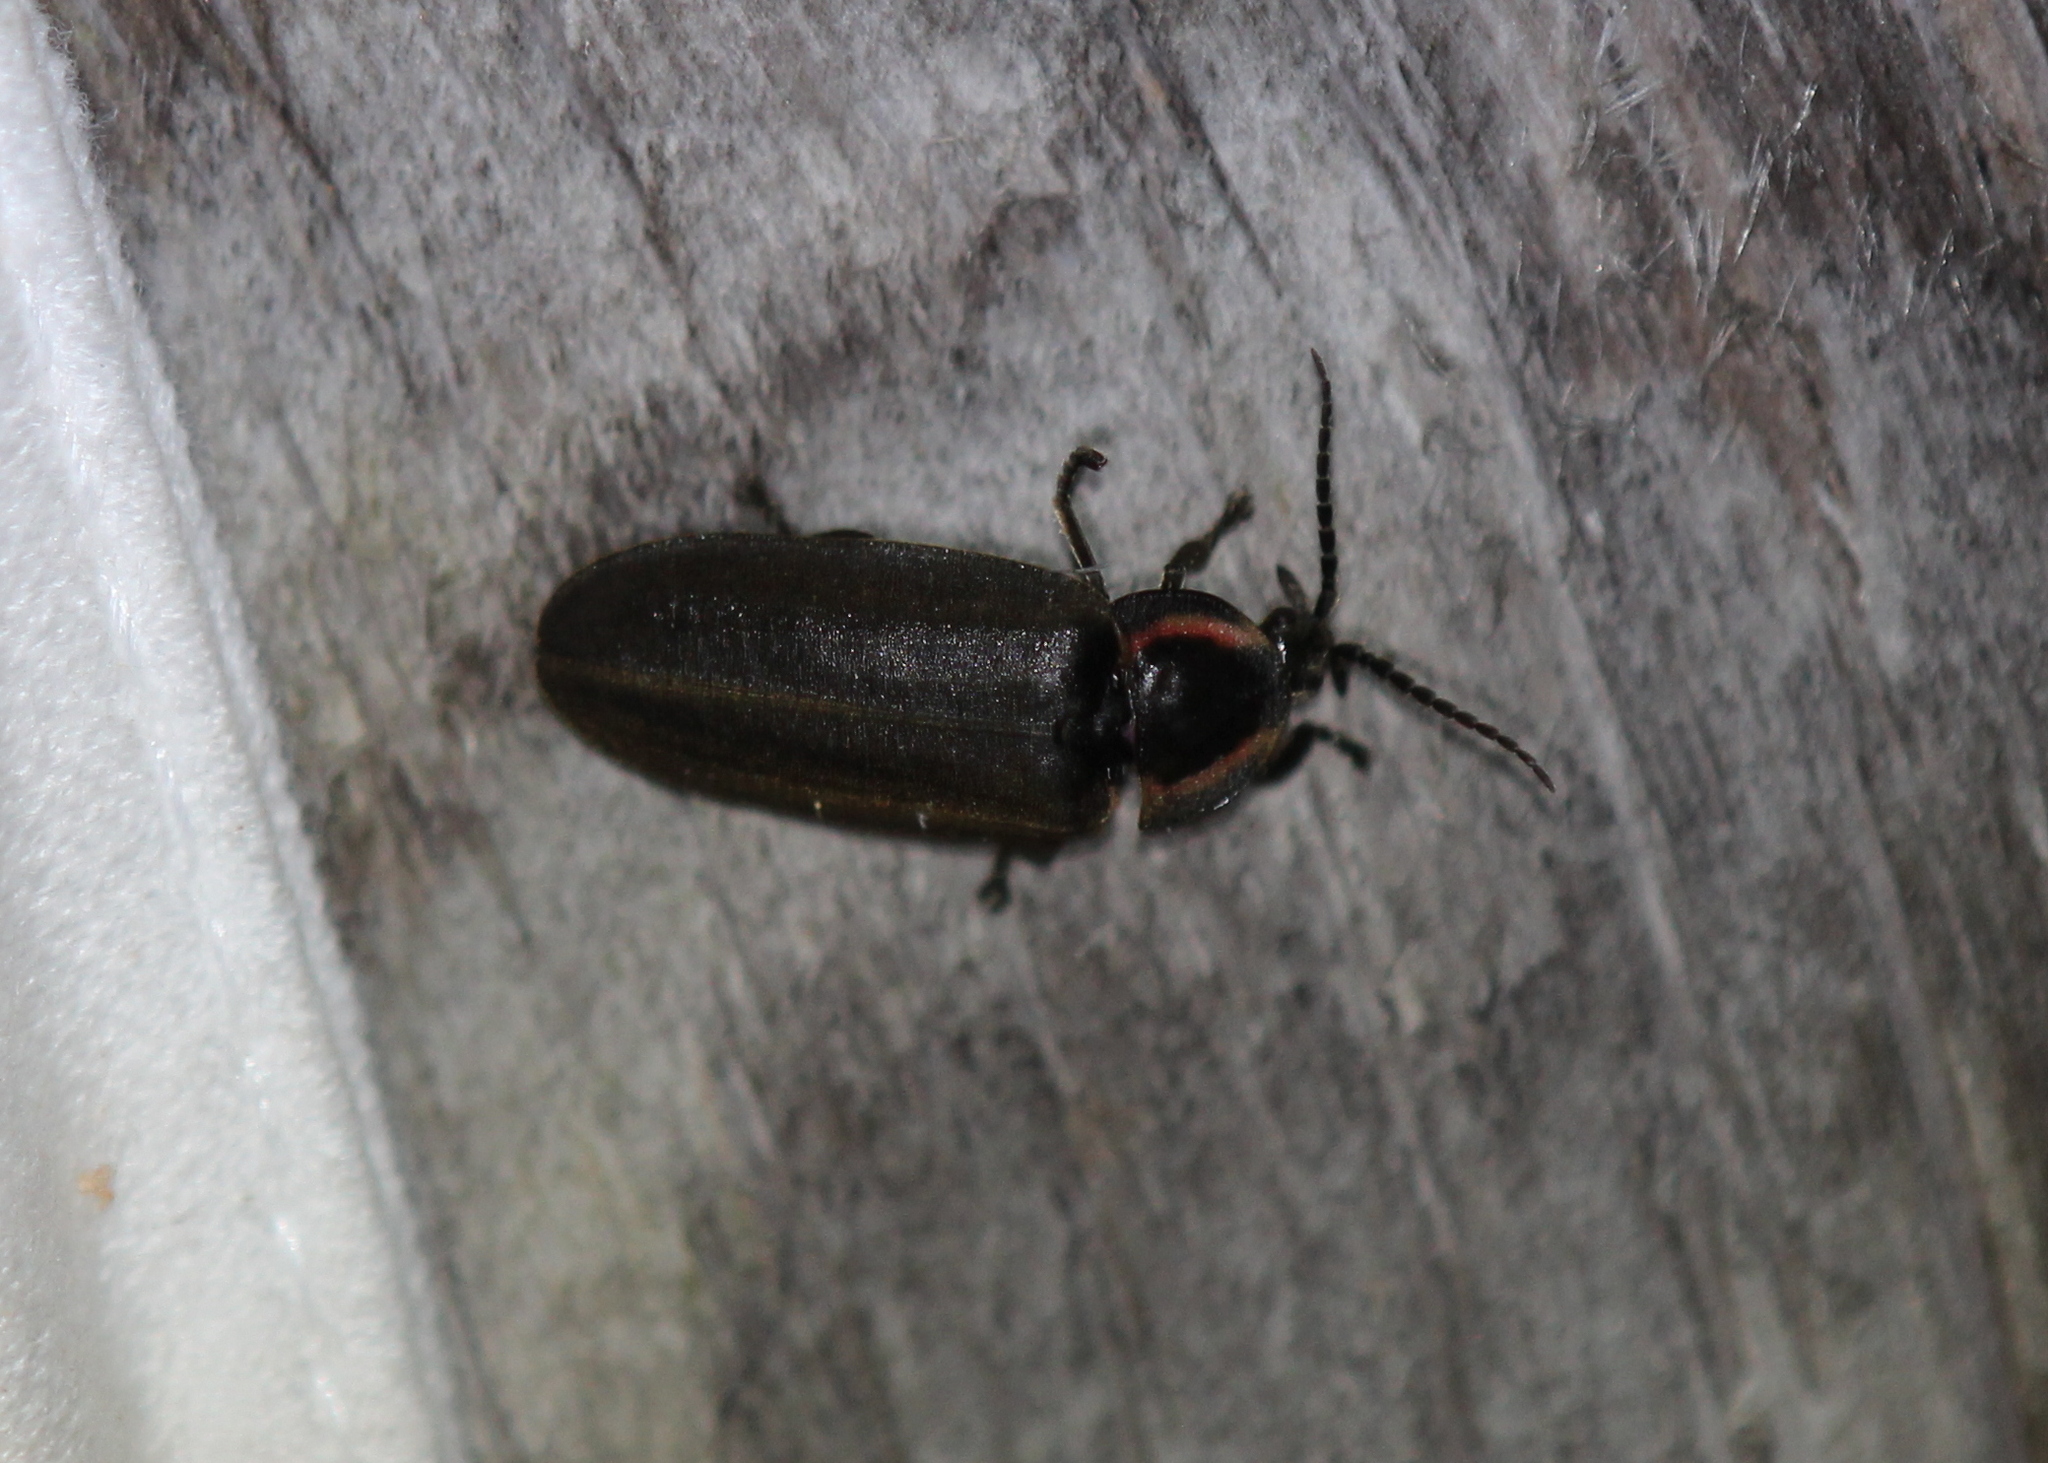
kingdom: Animalia
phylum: Arthropoda
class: Insecta
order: Coleoptera
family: Lampyridae
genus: Photinus
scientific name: Photinus corrusca
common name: Winter firefly
